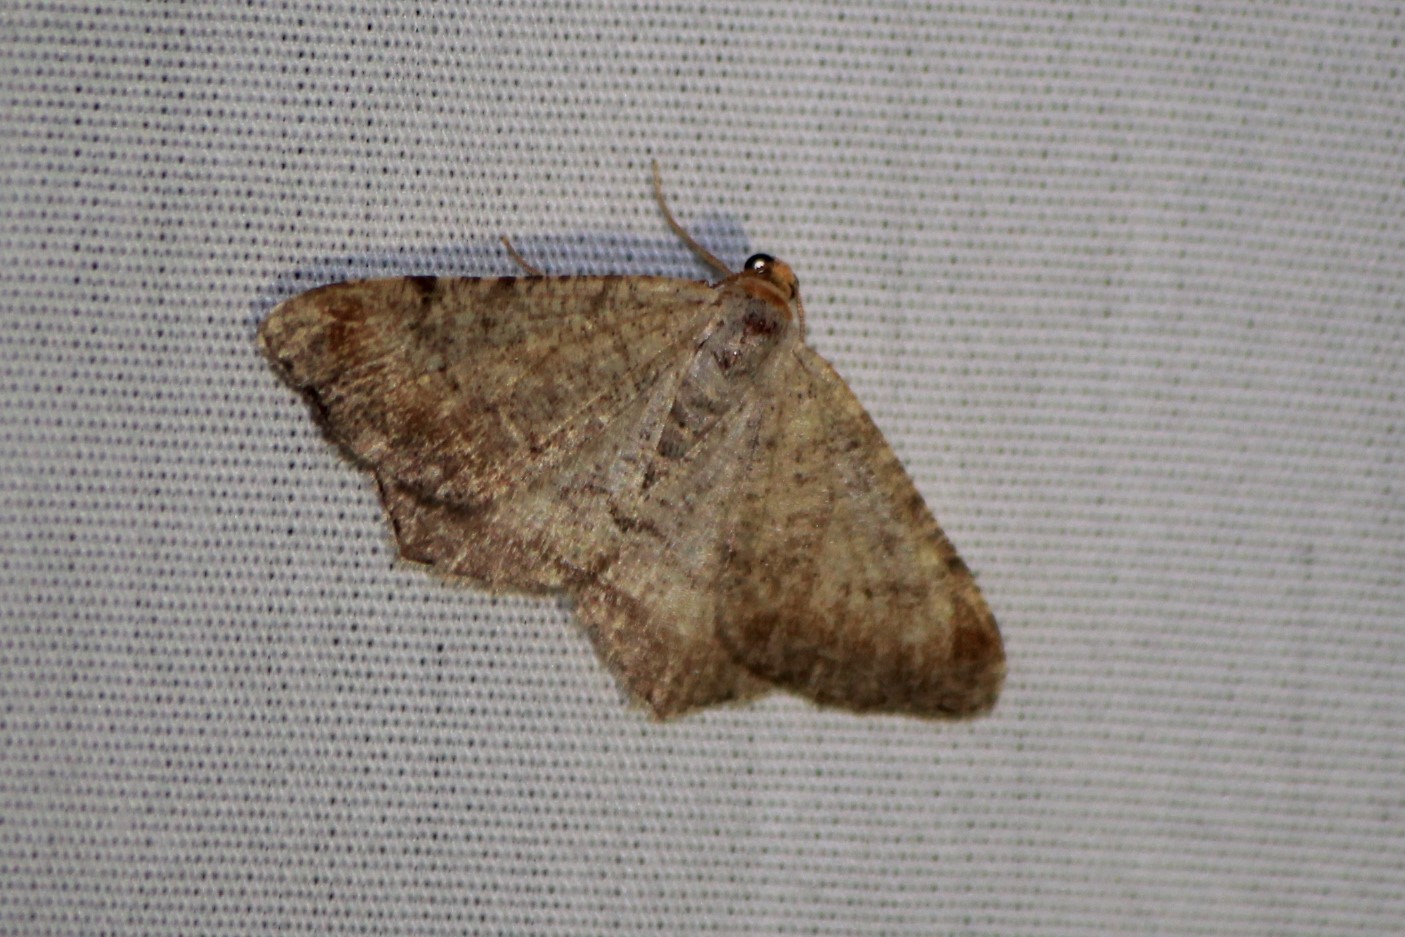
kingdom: Animalia
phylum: Arthropoda
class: Insecta
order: Lepidoptera
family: Geometridae
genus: Macaria
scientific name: Macaria minorata
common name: Minor angle moth
